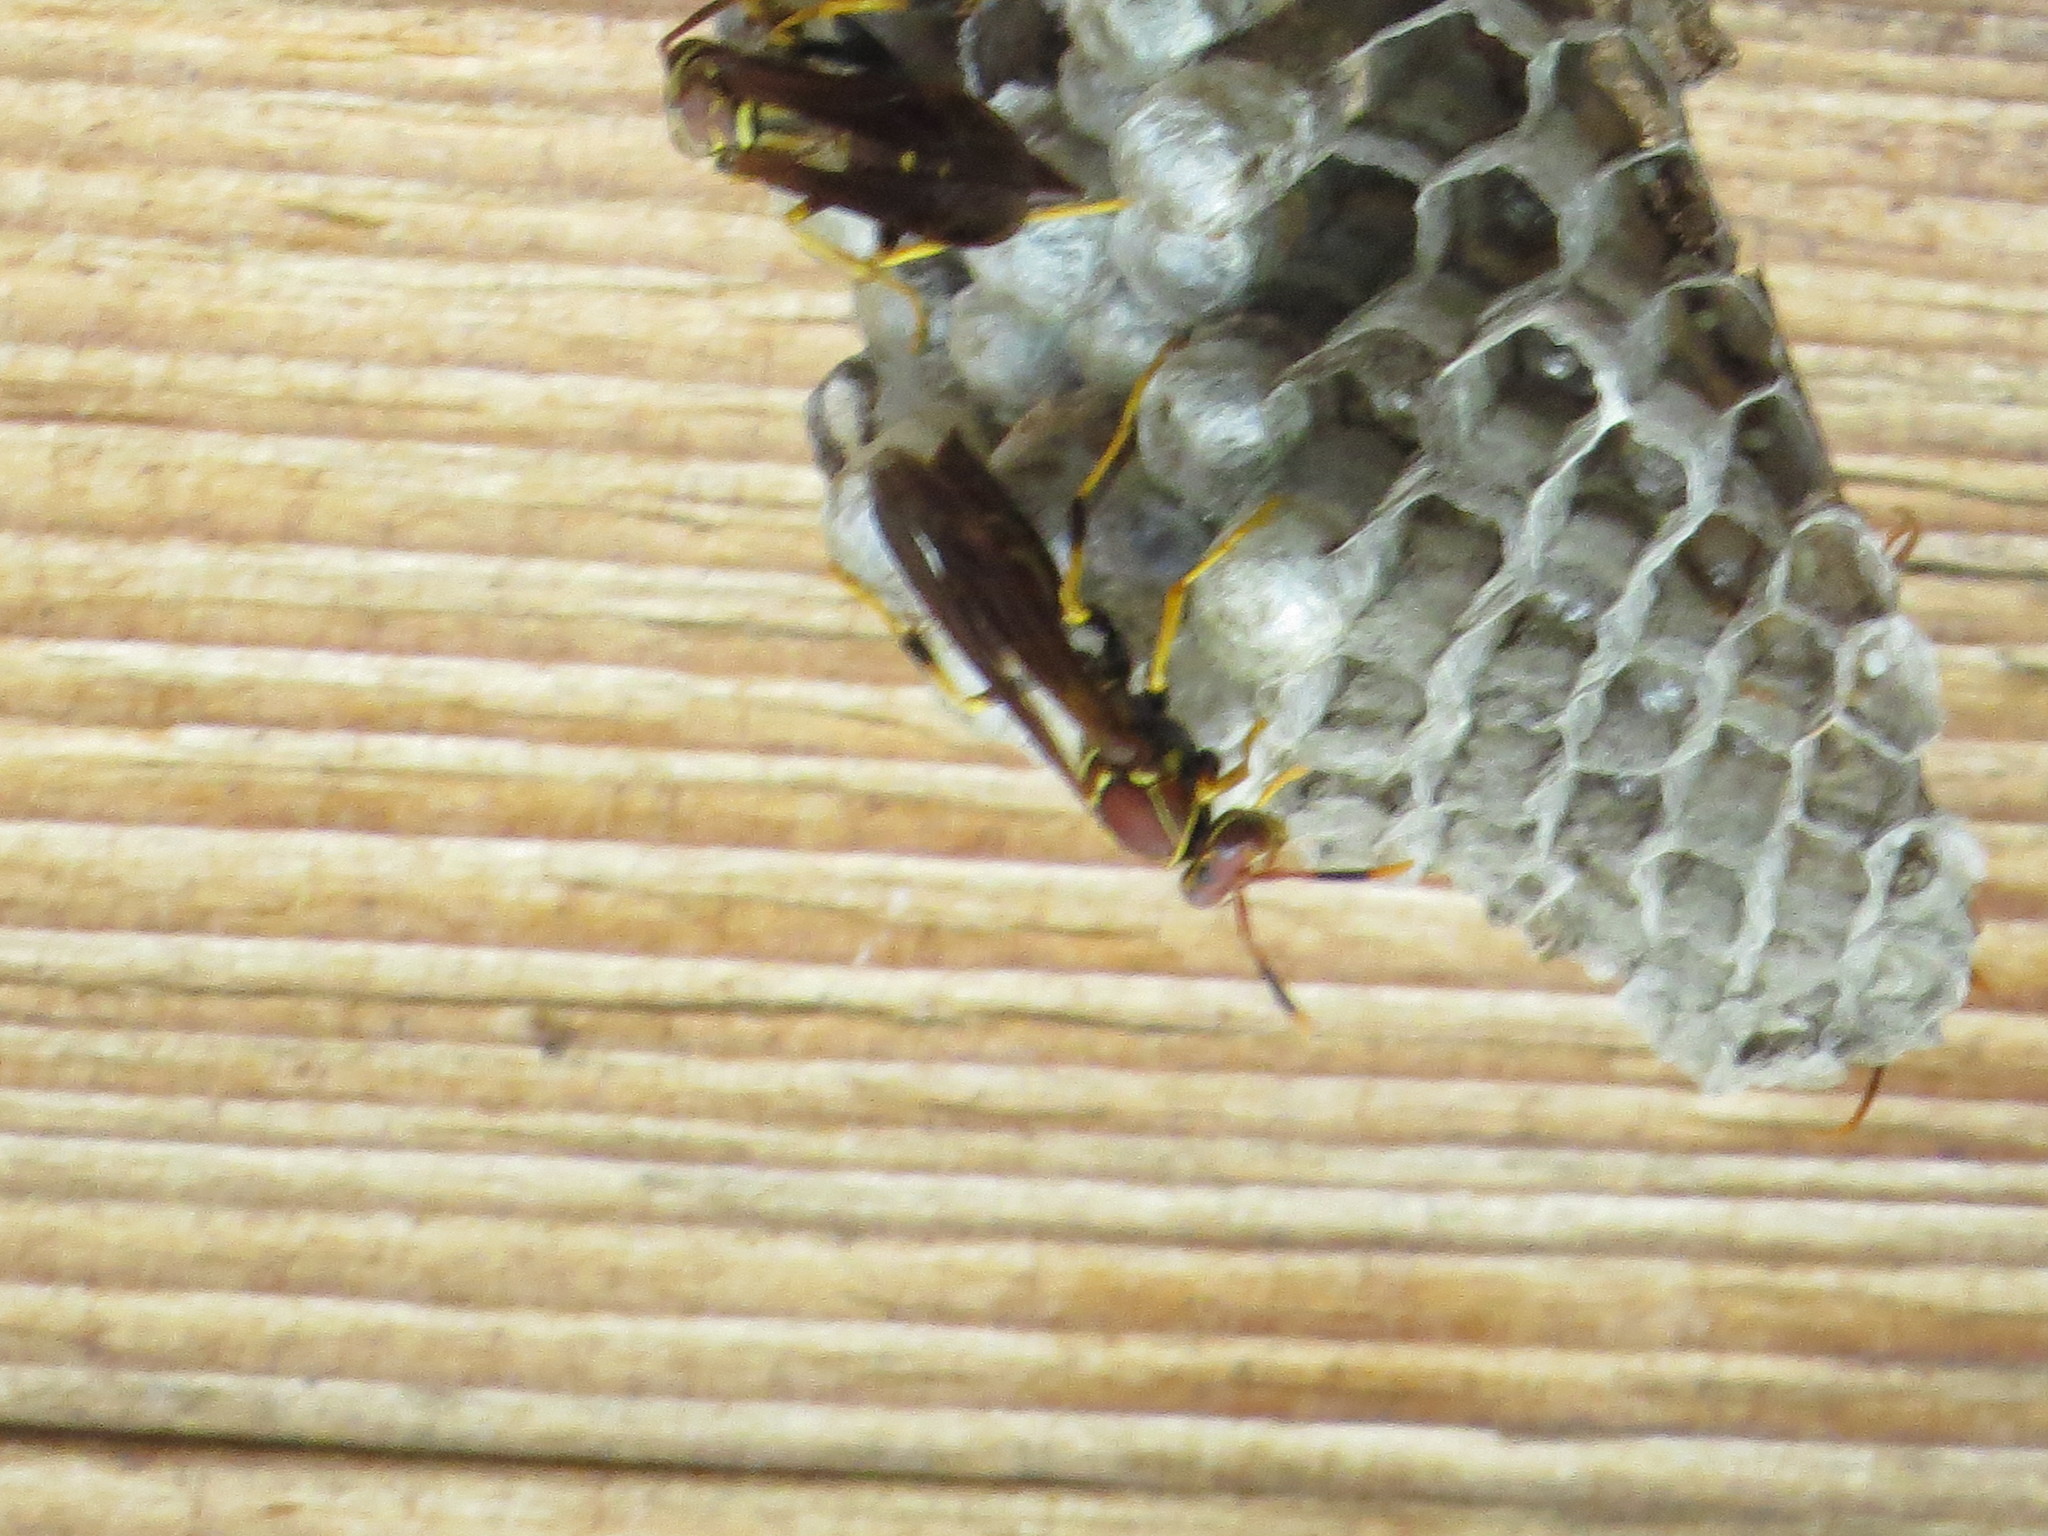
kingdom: Animalia
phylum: Arthropoda
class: Insecta
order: Hymenoptera
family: Eumenidae
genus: Polistes
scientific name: Polistes instabilis
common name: Unstable paper wasp
